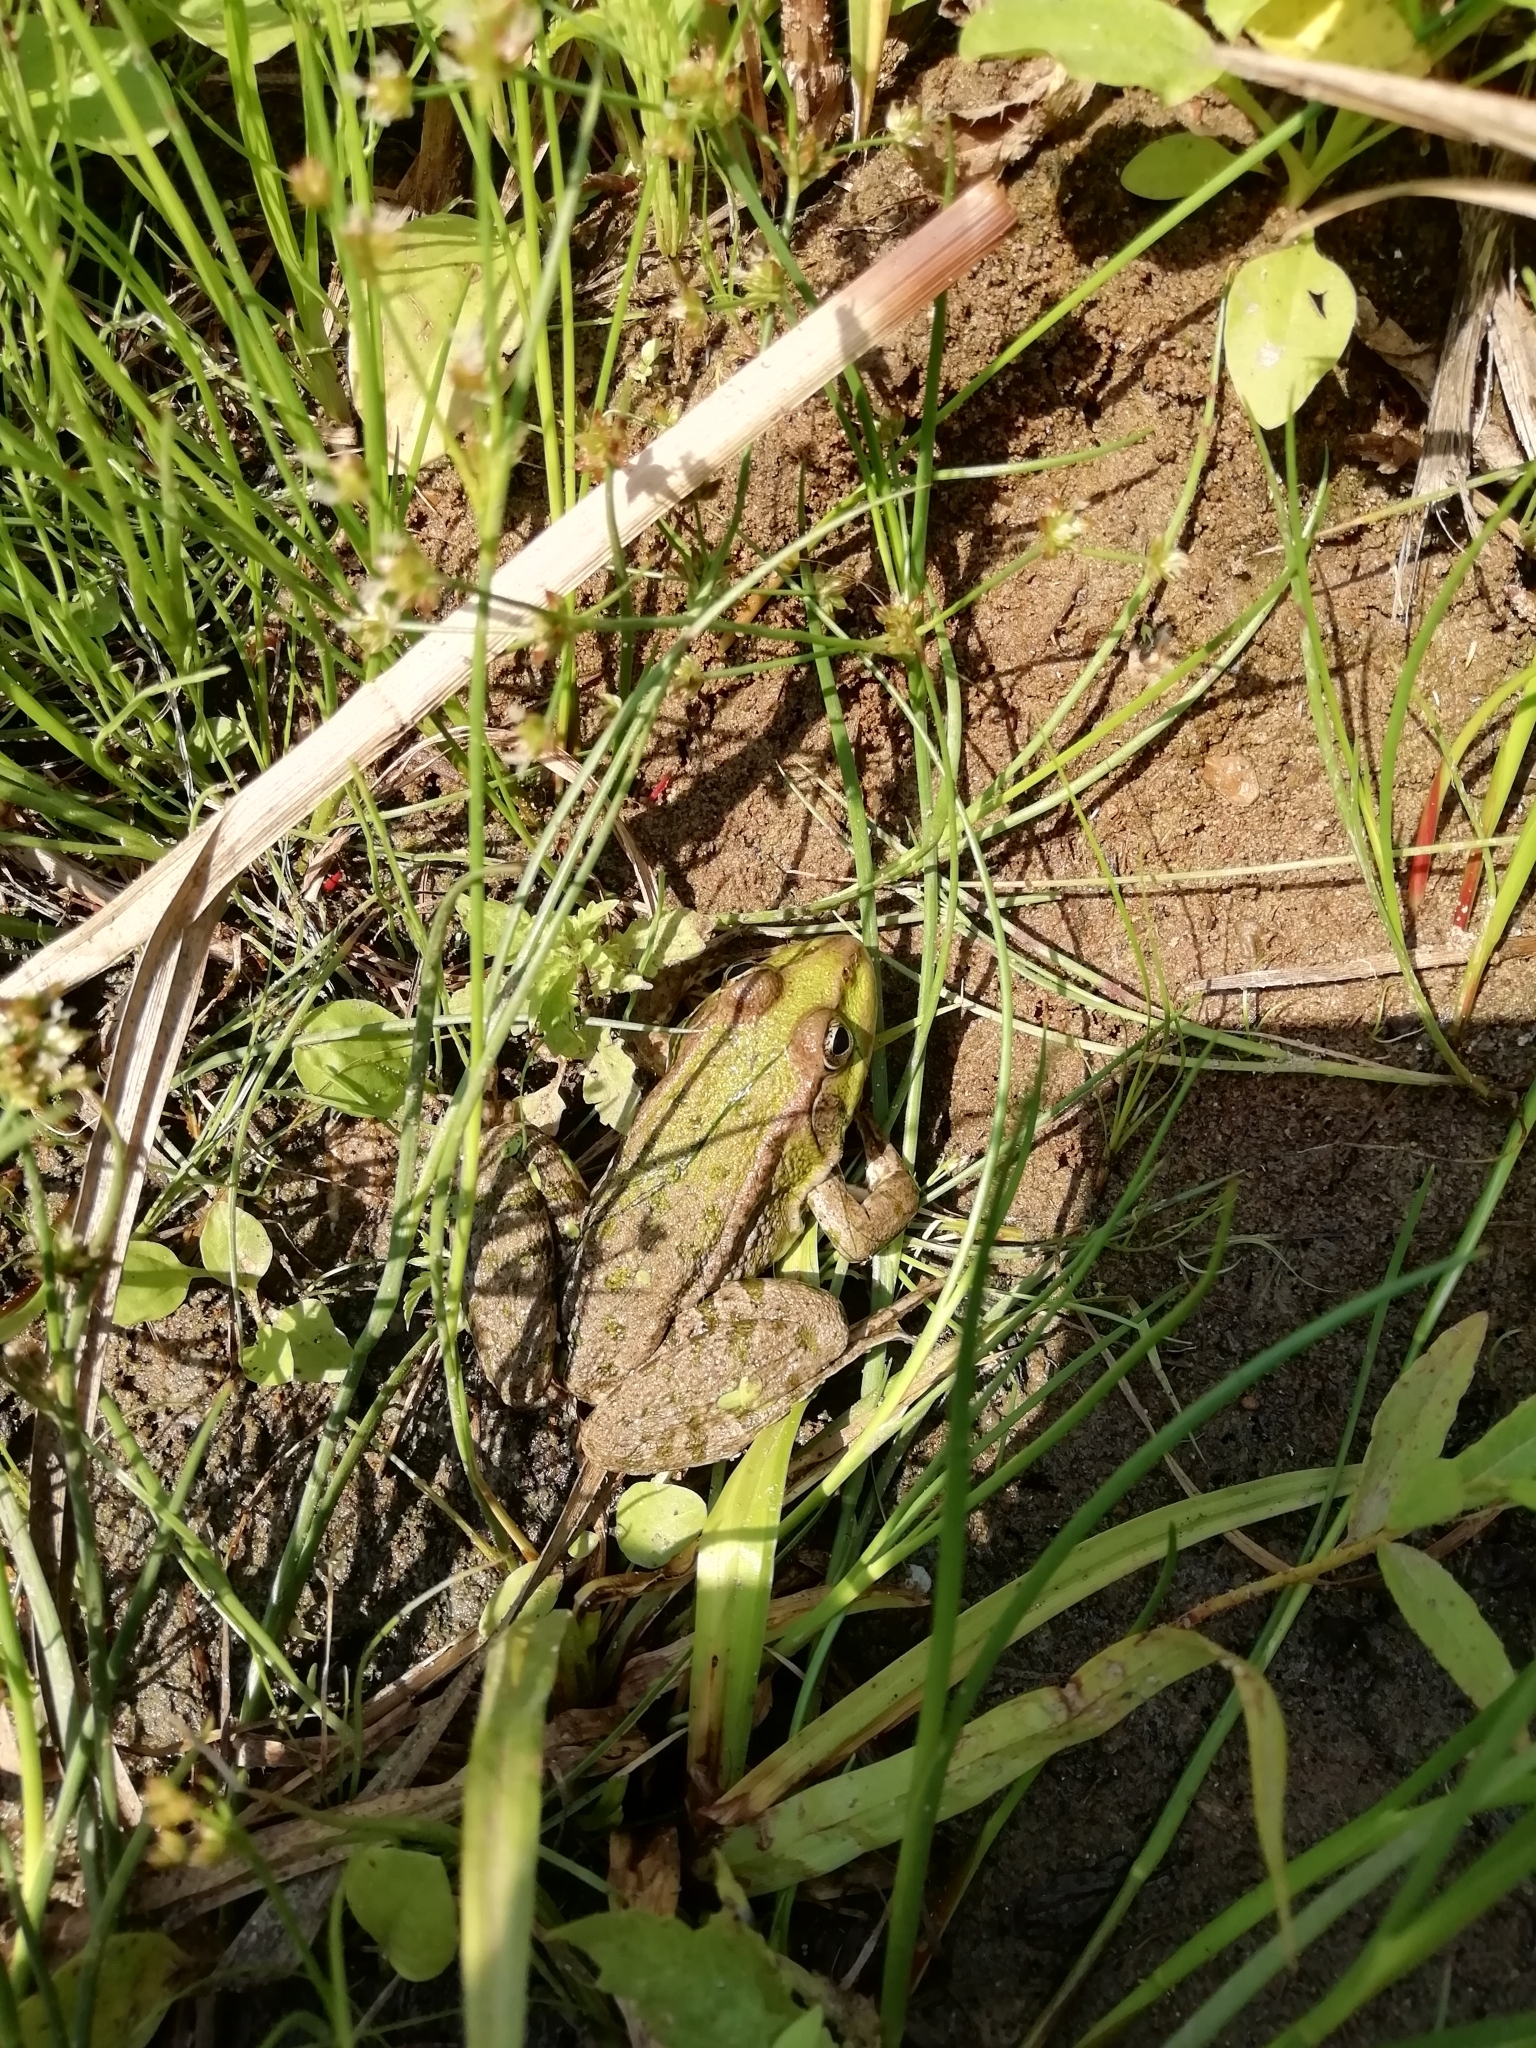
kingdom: Animalia
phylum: Chordata
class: Amphibia
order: Anura
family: Ranidae
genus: Pelophylax
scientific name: Pelophylax ridibundus
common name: Marsh frog
